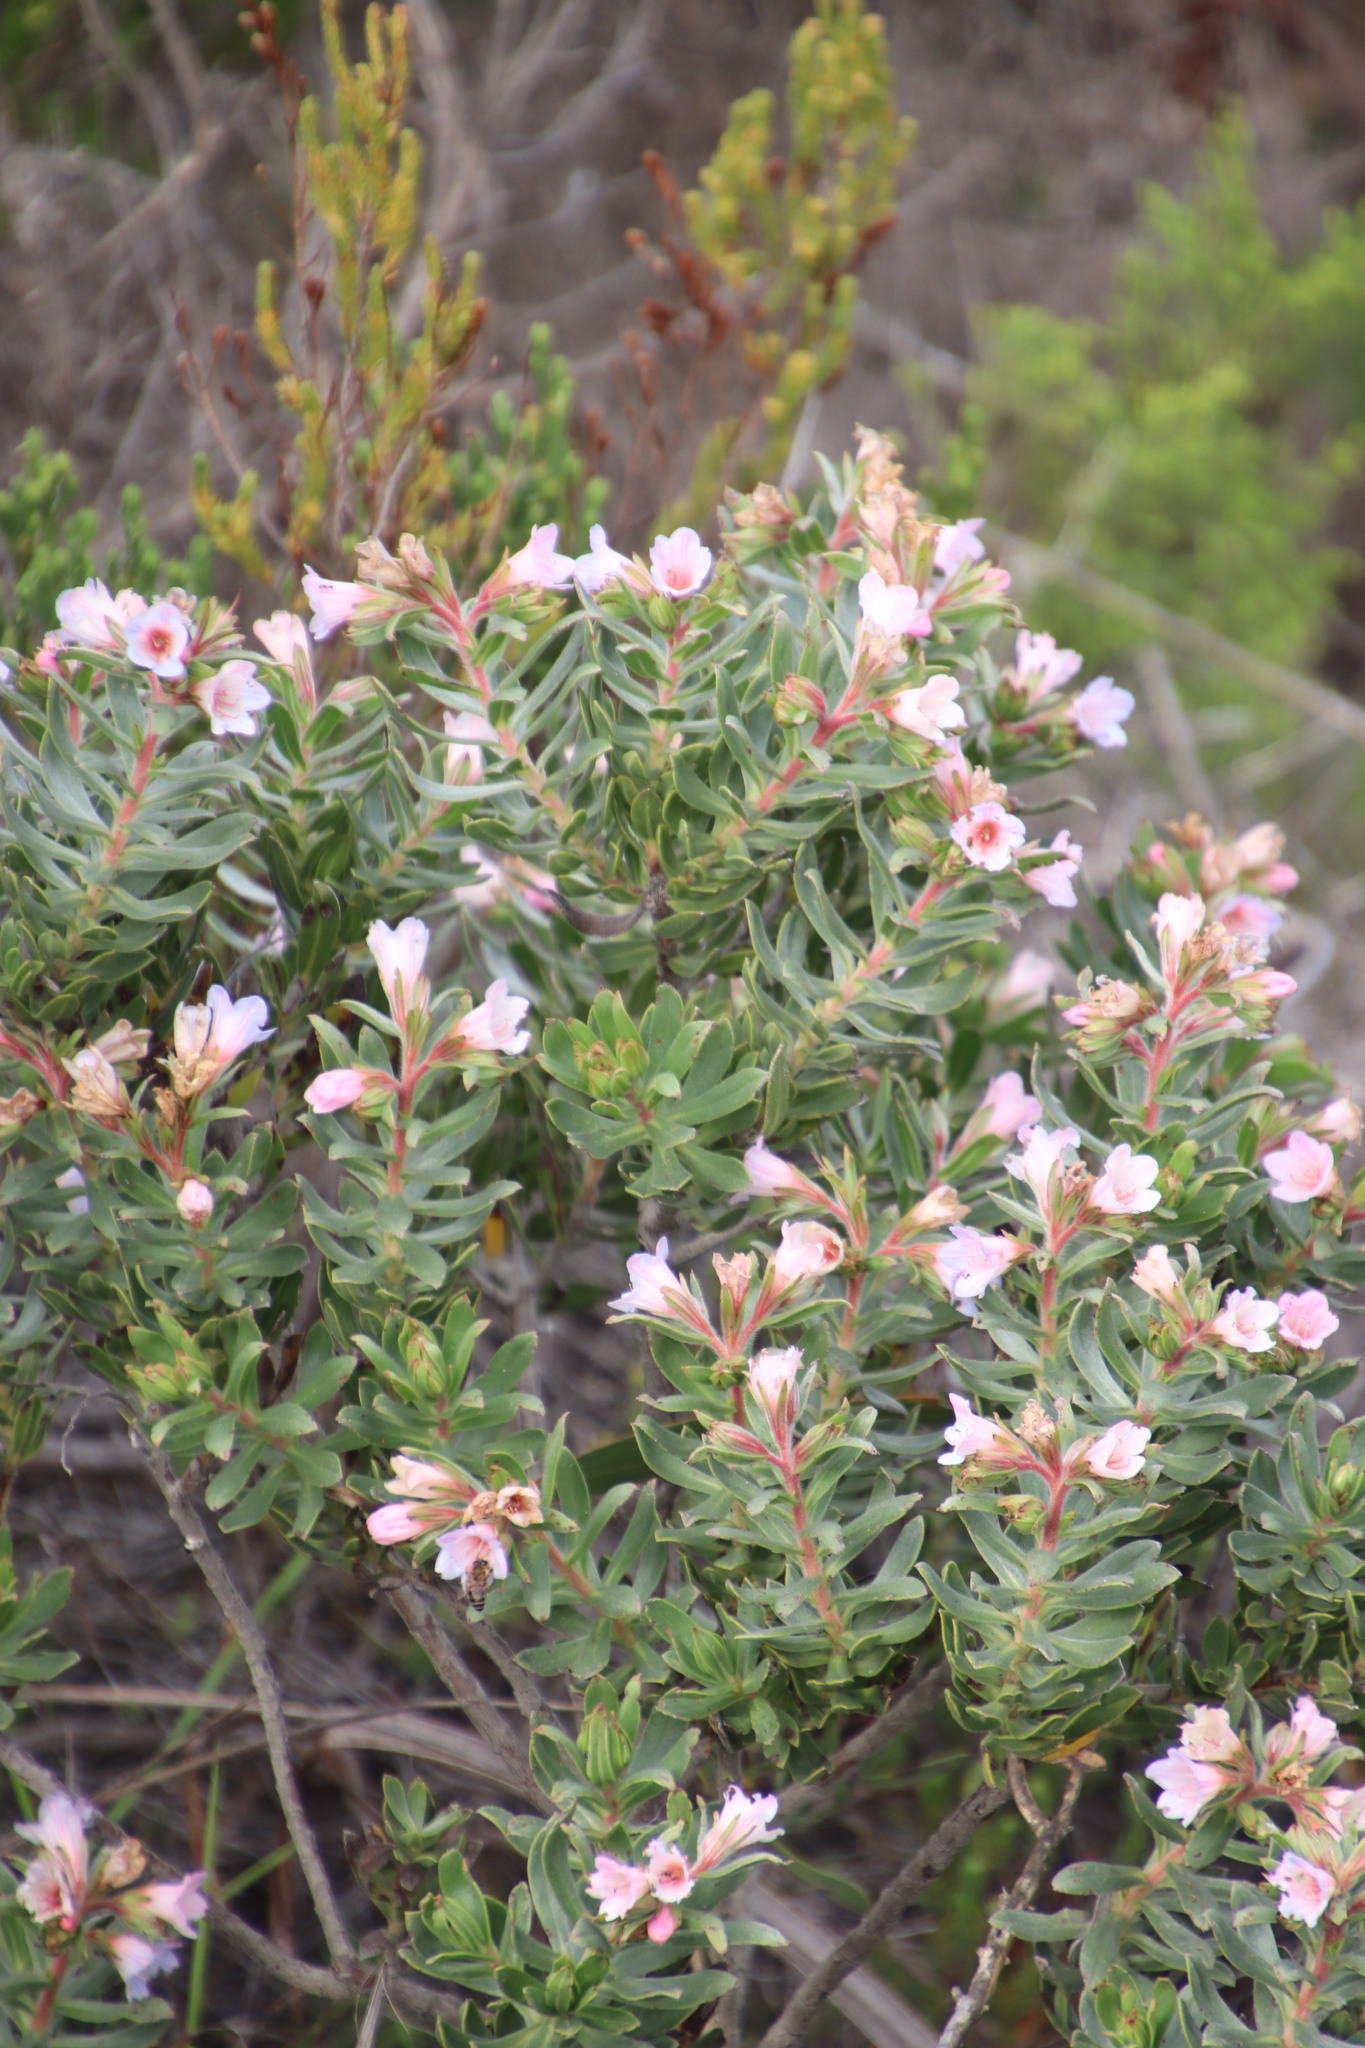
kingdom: Plantae
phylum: Tracheophyta
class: Magnoliopsida
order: Boraginales
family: Boraginaceae
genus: Lobostemon
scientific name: Lobostemon fruticosus
